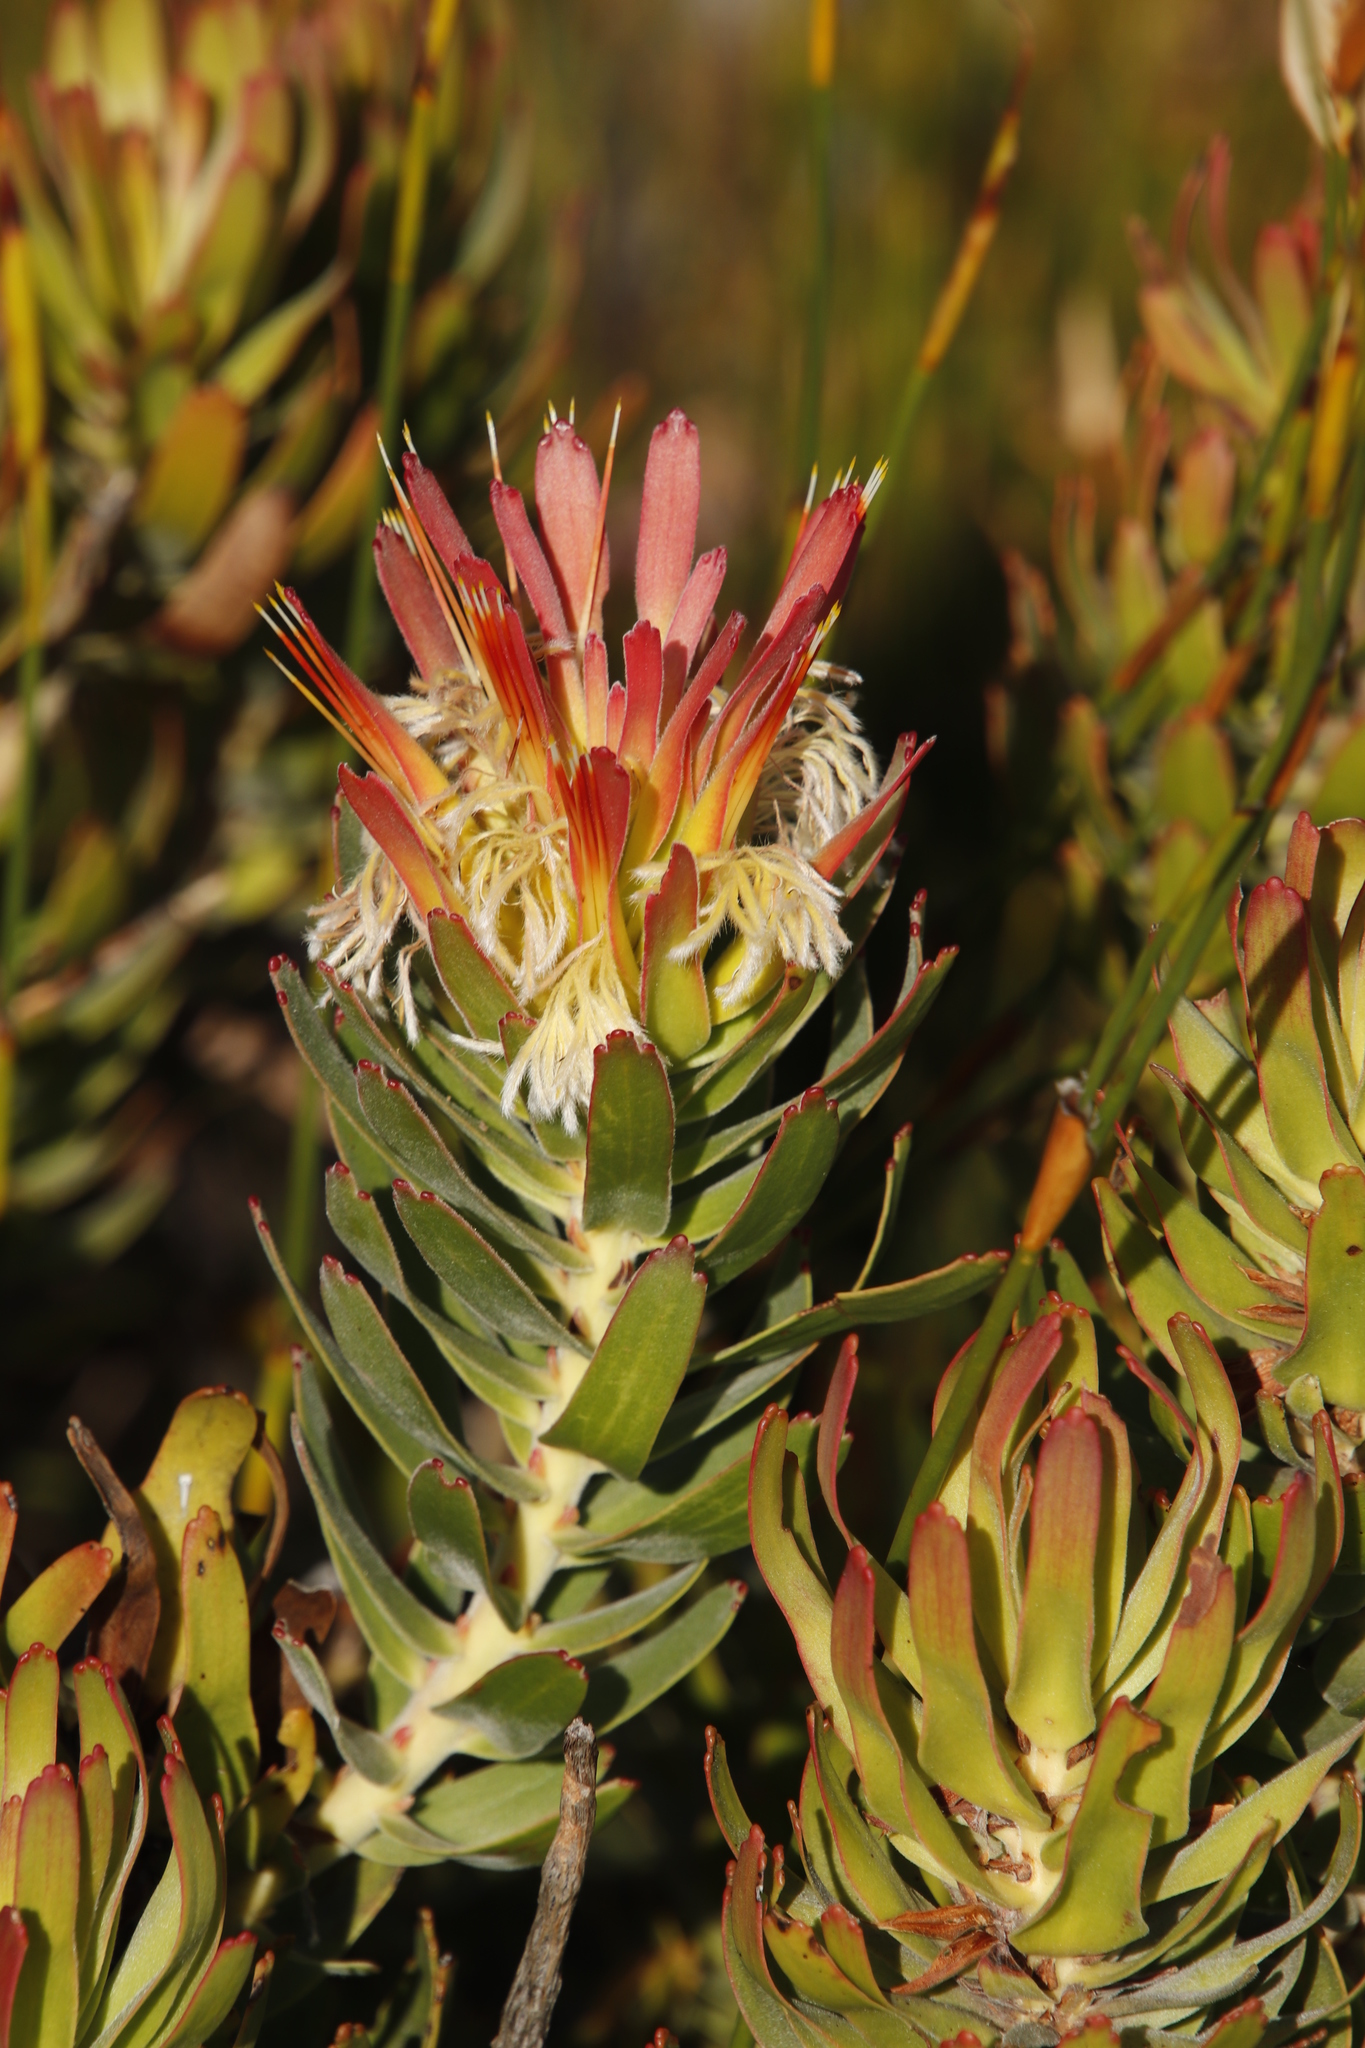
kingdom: Plantae
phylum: Tracheophyta
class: Magnoliopsida
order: Proteales
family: Proteaceae
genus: Mimetes
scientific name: Mimetes cucullatus
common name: Common pagoda
